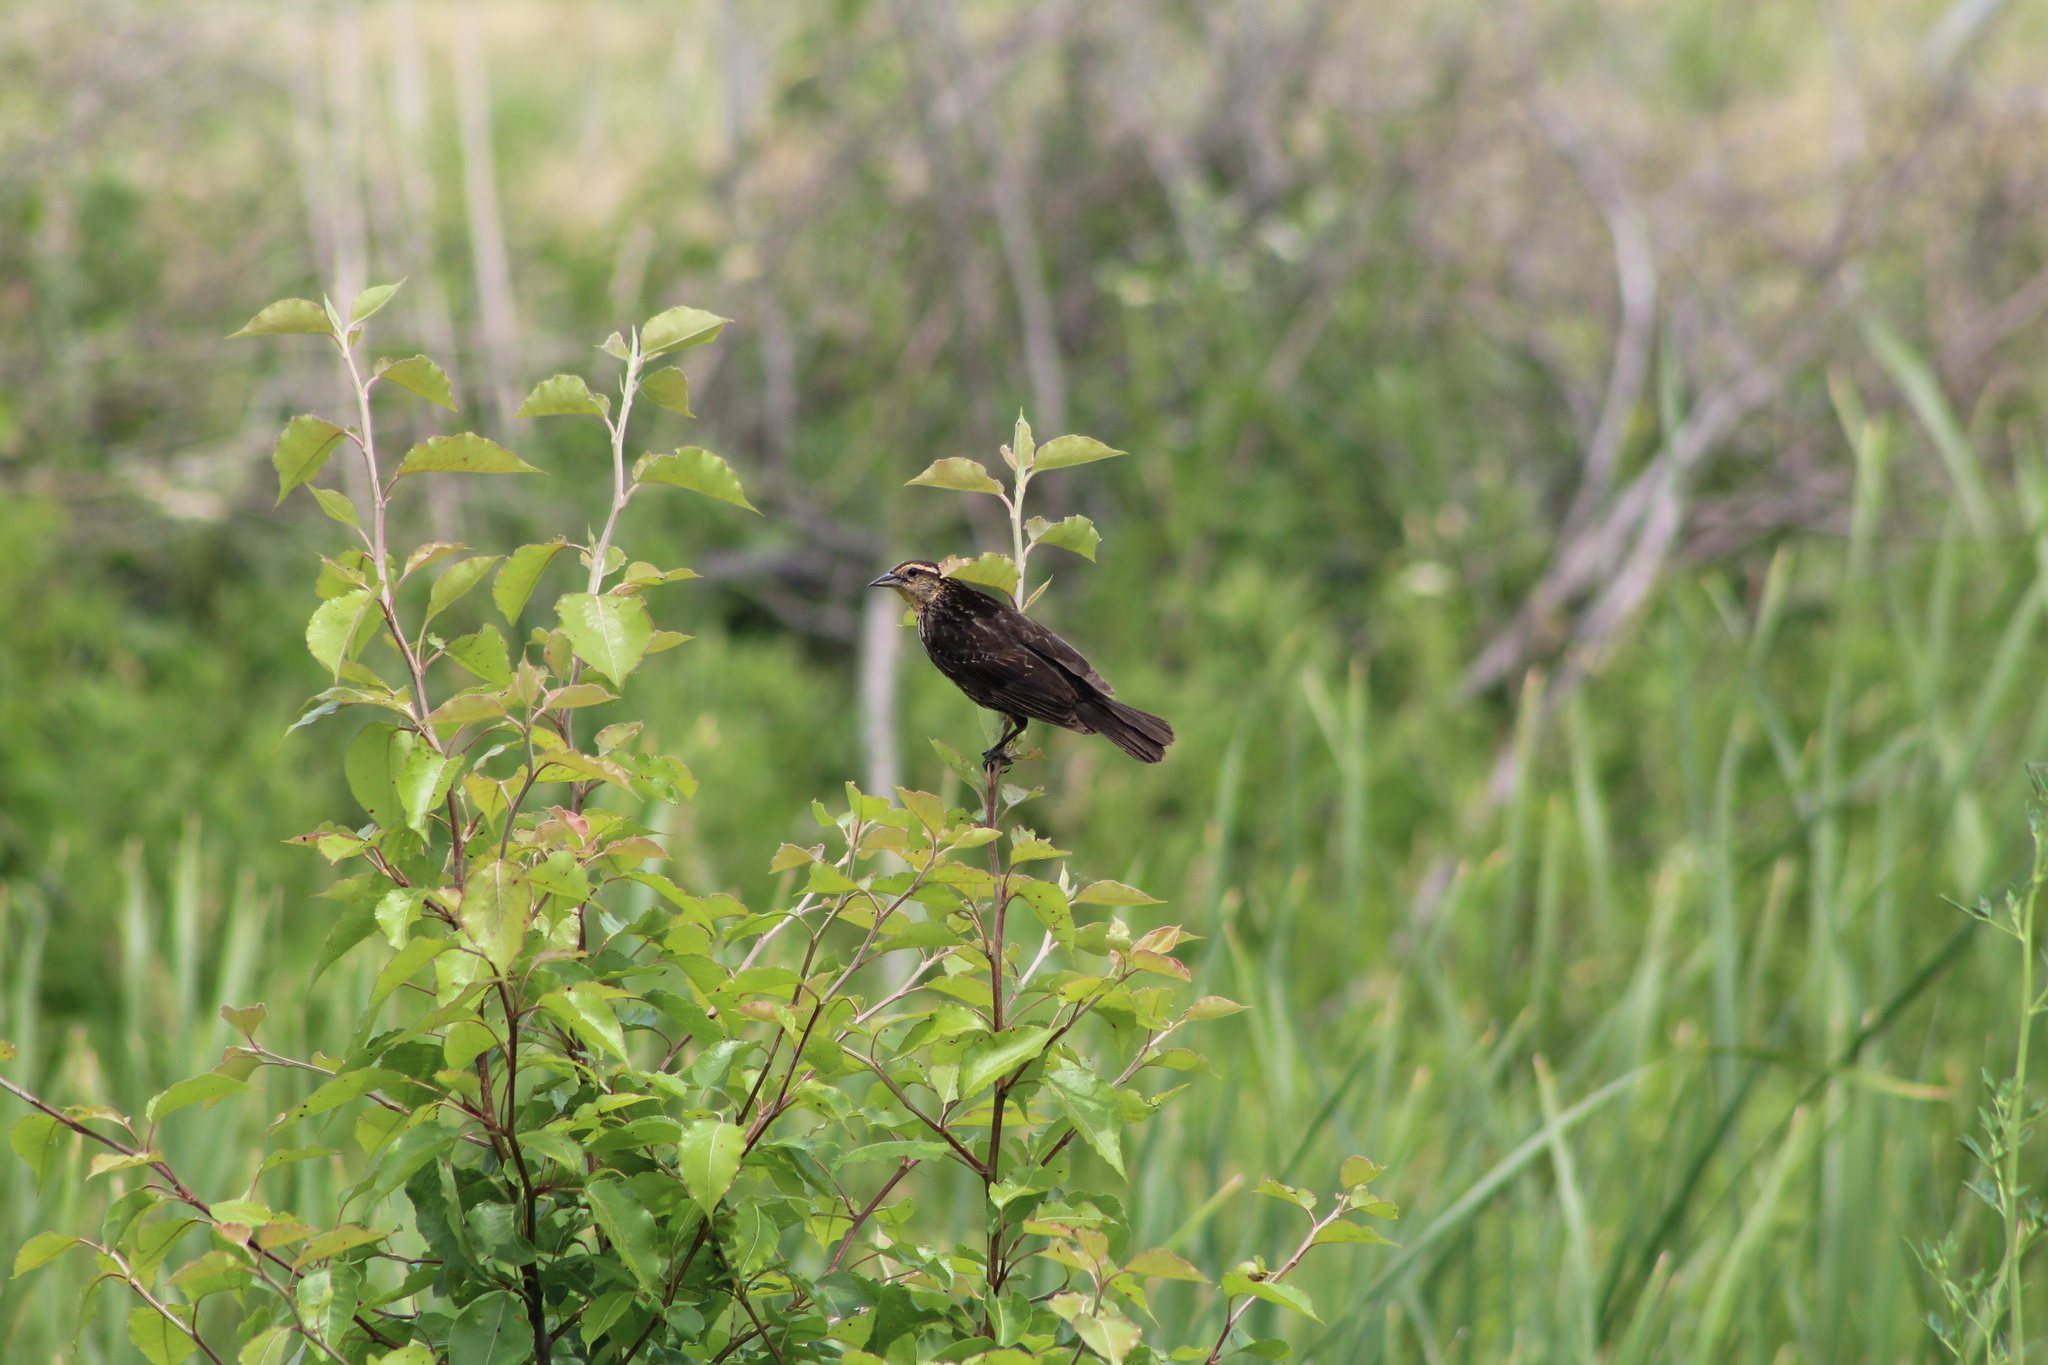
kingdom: Animalia
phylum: Chordata
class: Aves
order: Passeriformes
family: Icteridae
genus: Agelaius
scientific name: Agelaius phoeniceus
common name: Red-winged blackbird
